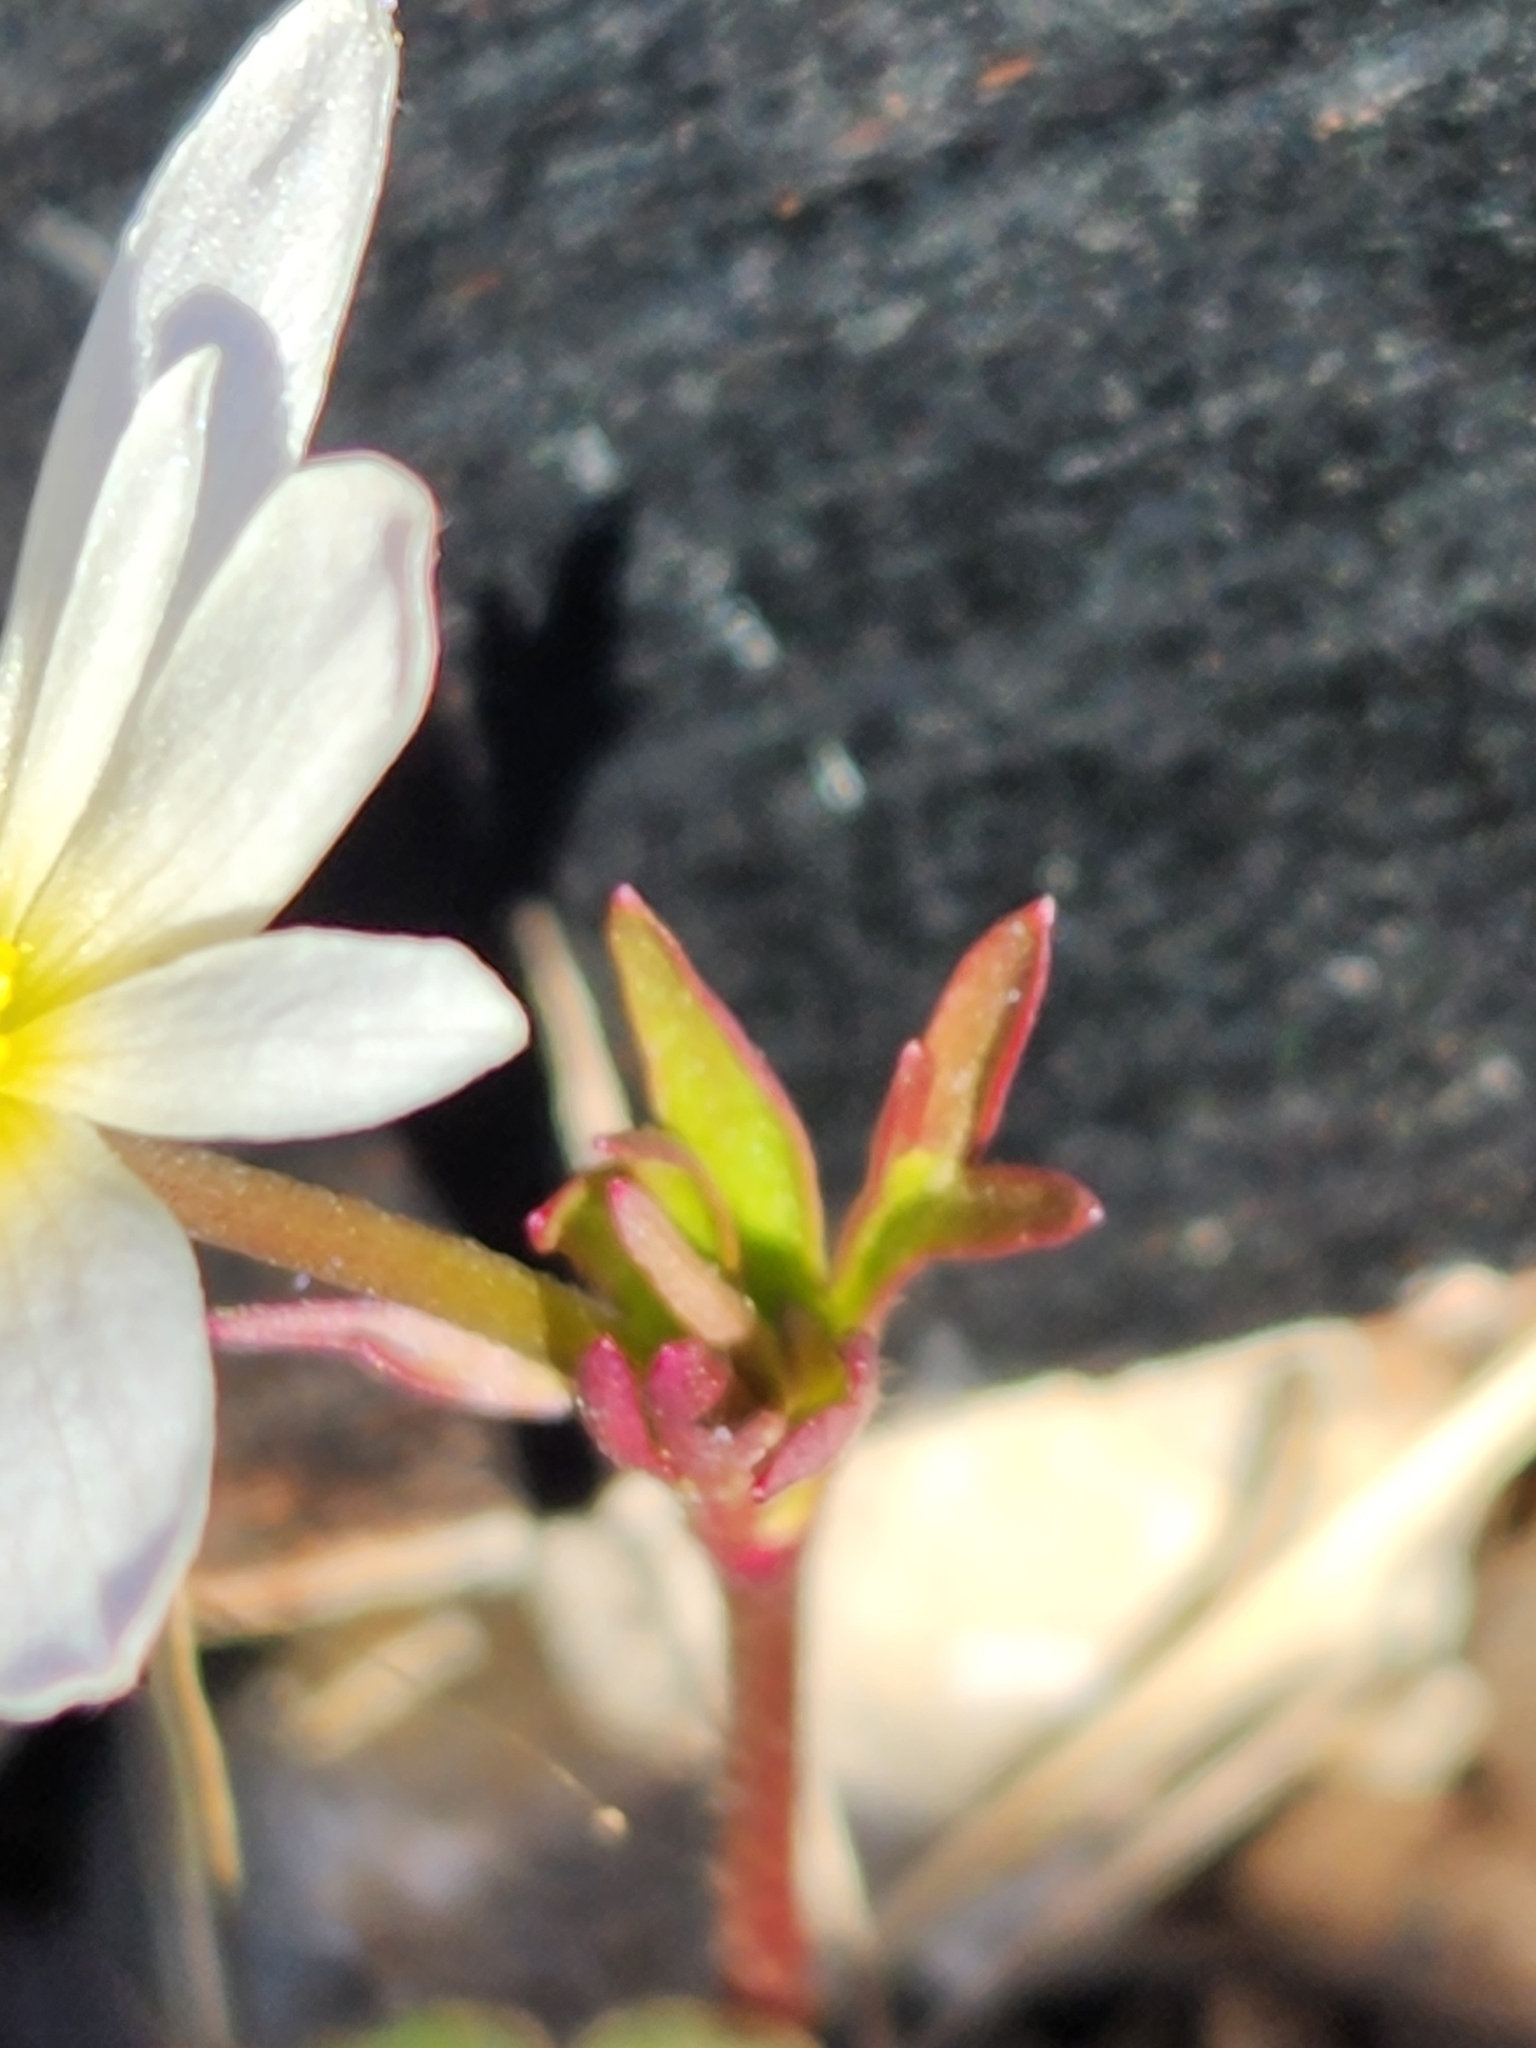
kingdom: Plantae
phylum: Tracheophyta
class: Magnoliopsida
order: Ranunculales
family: Ranunculaceae
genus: Anemone
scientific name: Anemone edwardsiana
